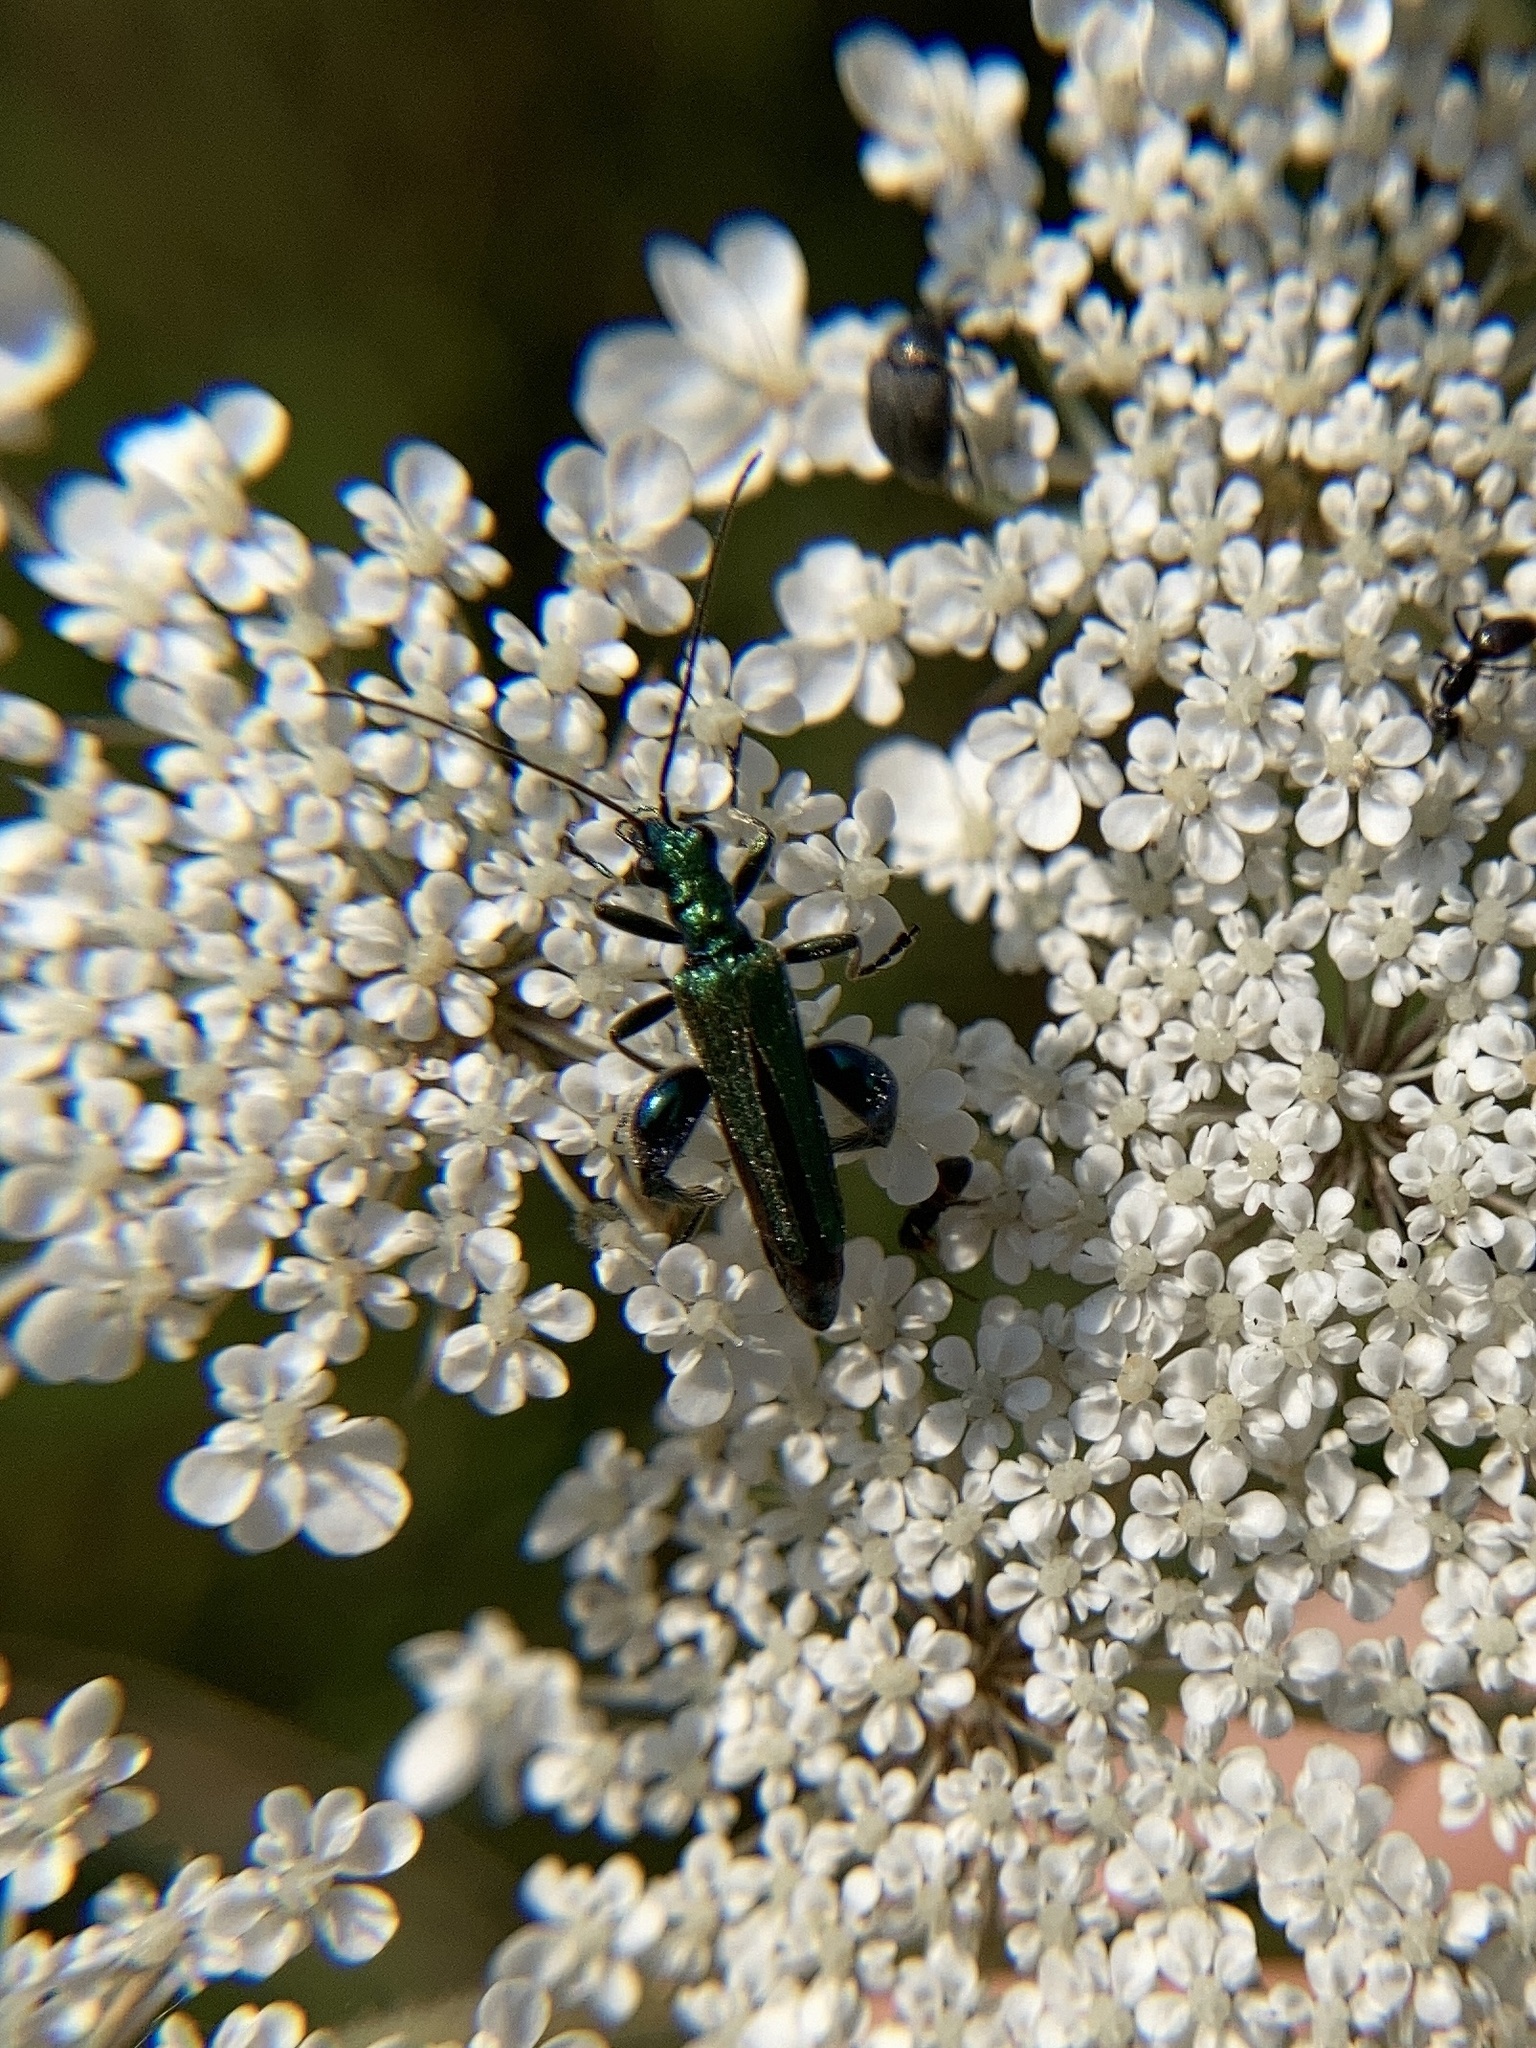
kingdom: Animalia
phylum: Arthropoda
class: Insecta
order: Coleoptera
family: Oedemeridae
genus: Oedemera
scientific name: Oedemera nobilis
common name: Swollen-thighed beetle
